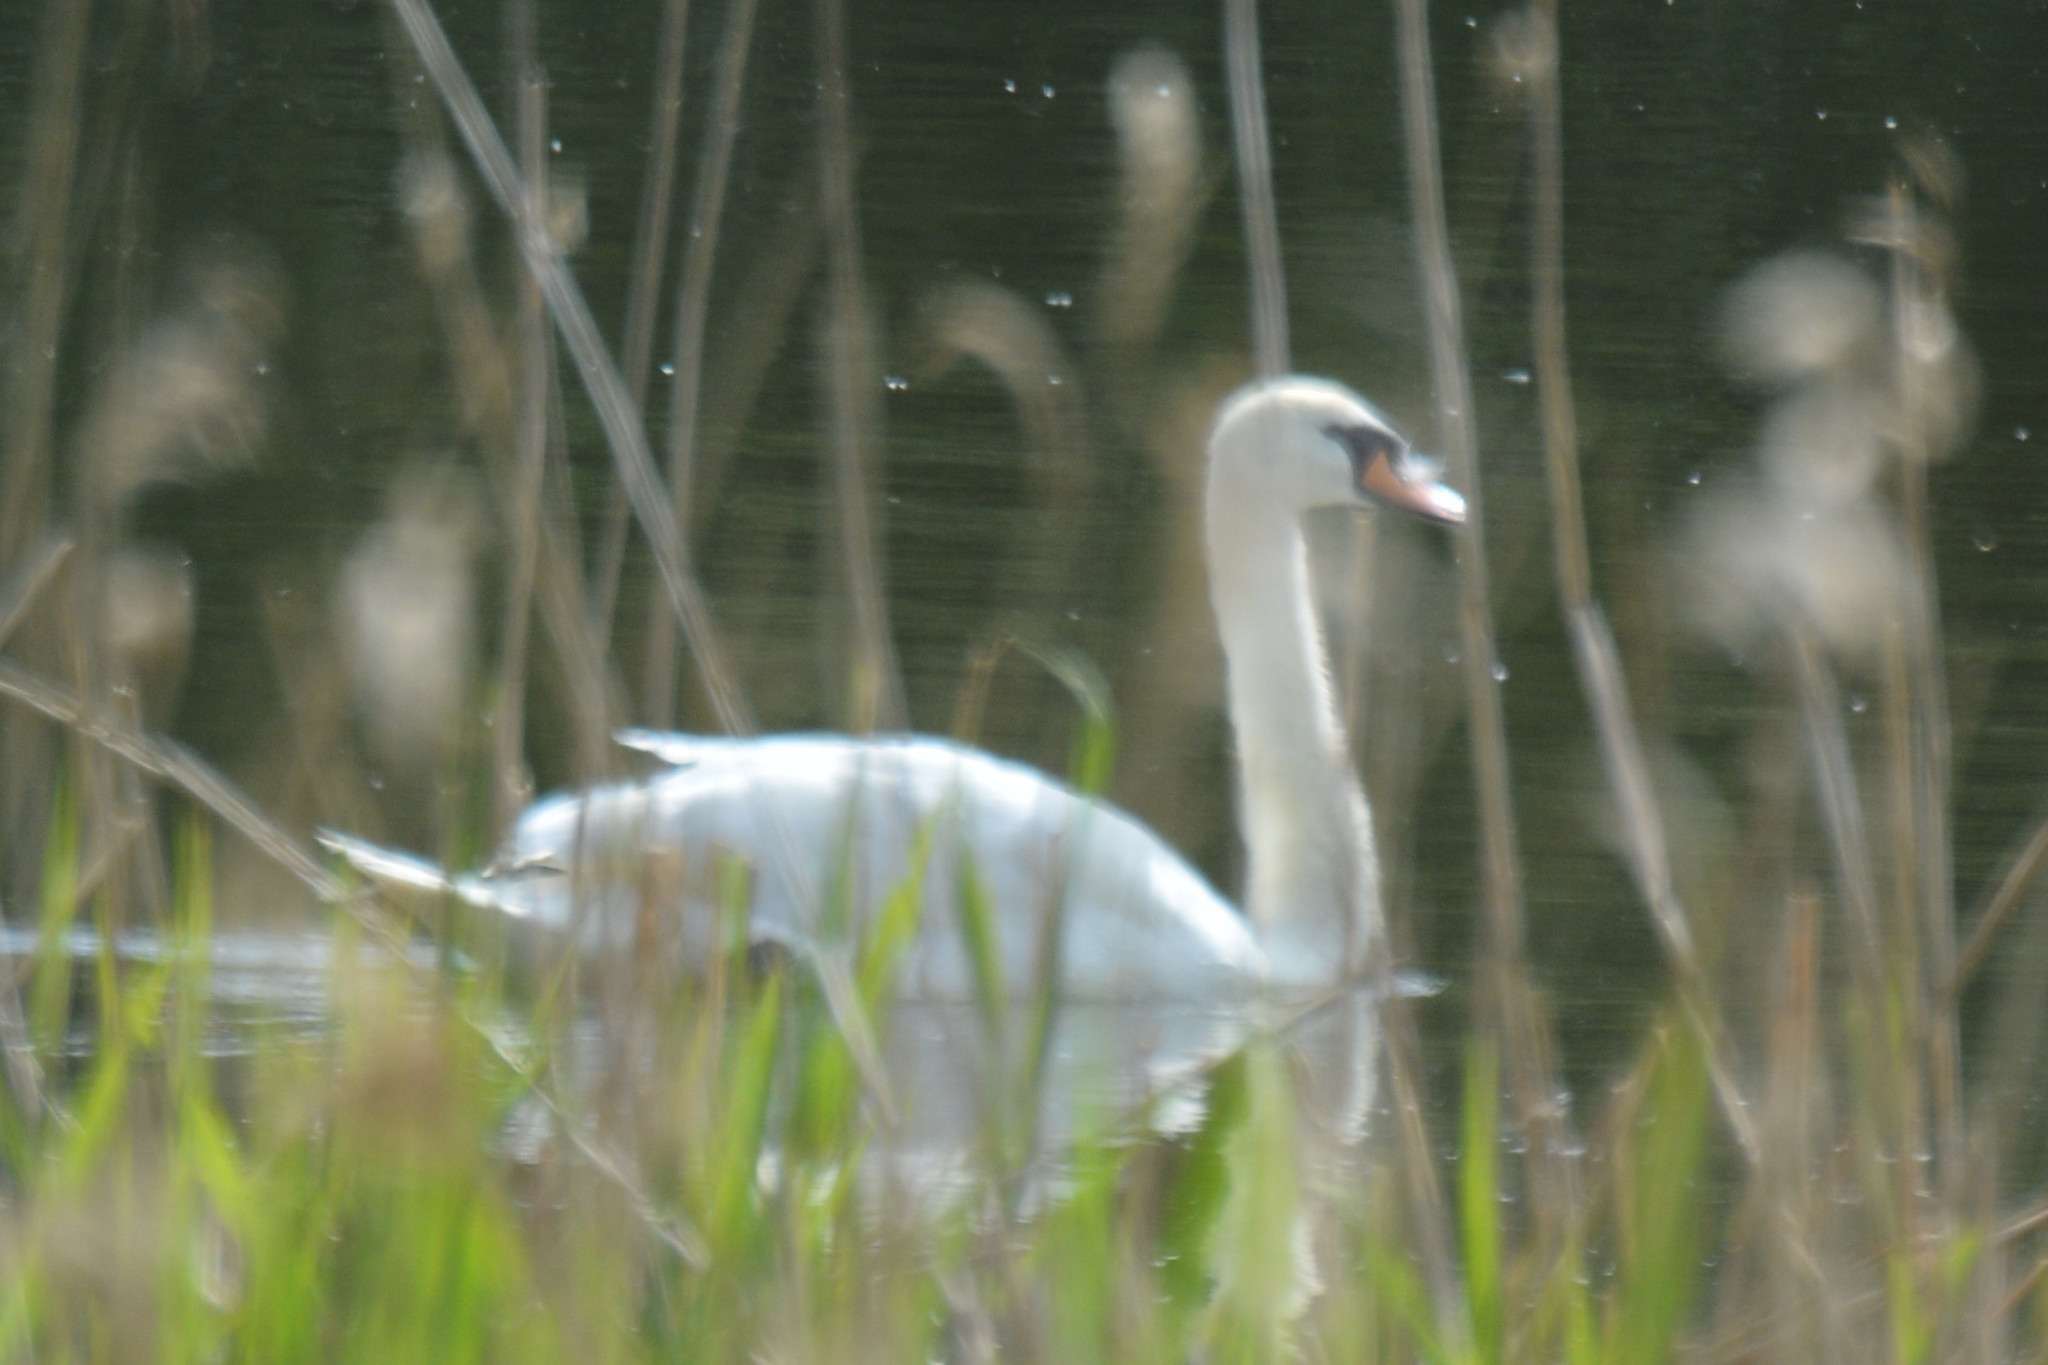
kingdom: Animalia
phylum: Chordata
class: Aves
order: Anseriformes
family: Anatidae
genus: Cygnus
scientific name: Cygnus olor
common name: Mute swan
